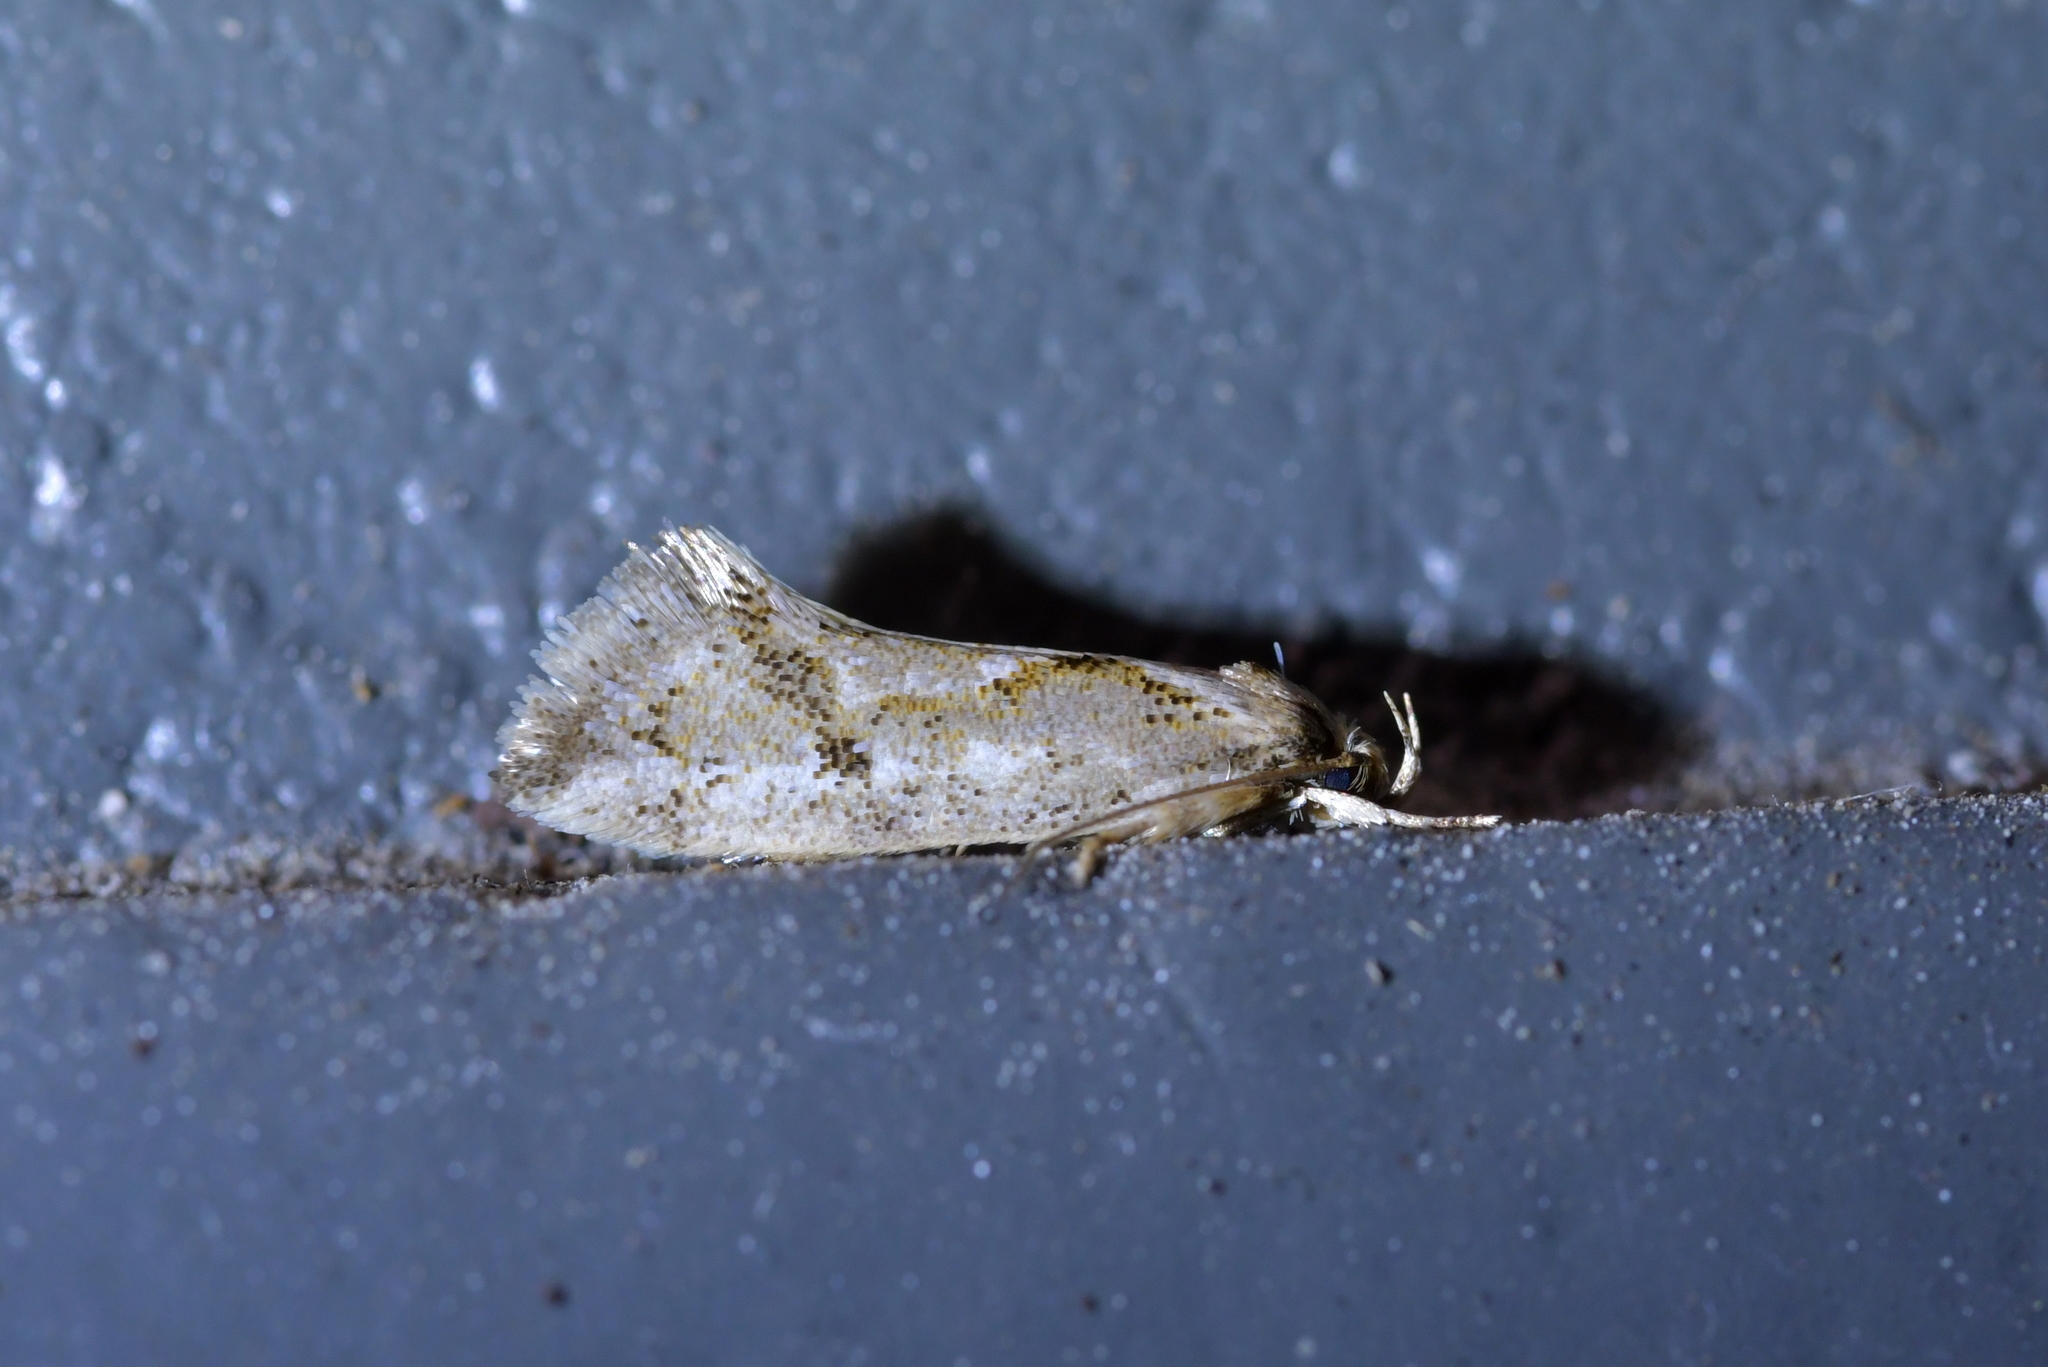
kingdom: Animalia
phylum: Arthropoda
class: Insecta
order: Lepidoptera
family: Oecophoridae
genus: Tingena
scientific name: Tingena hemimochla
